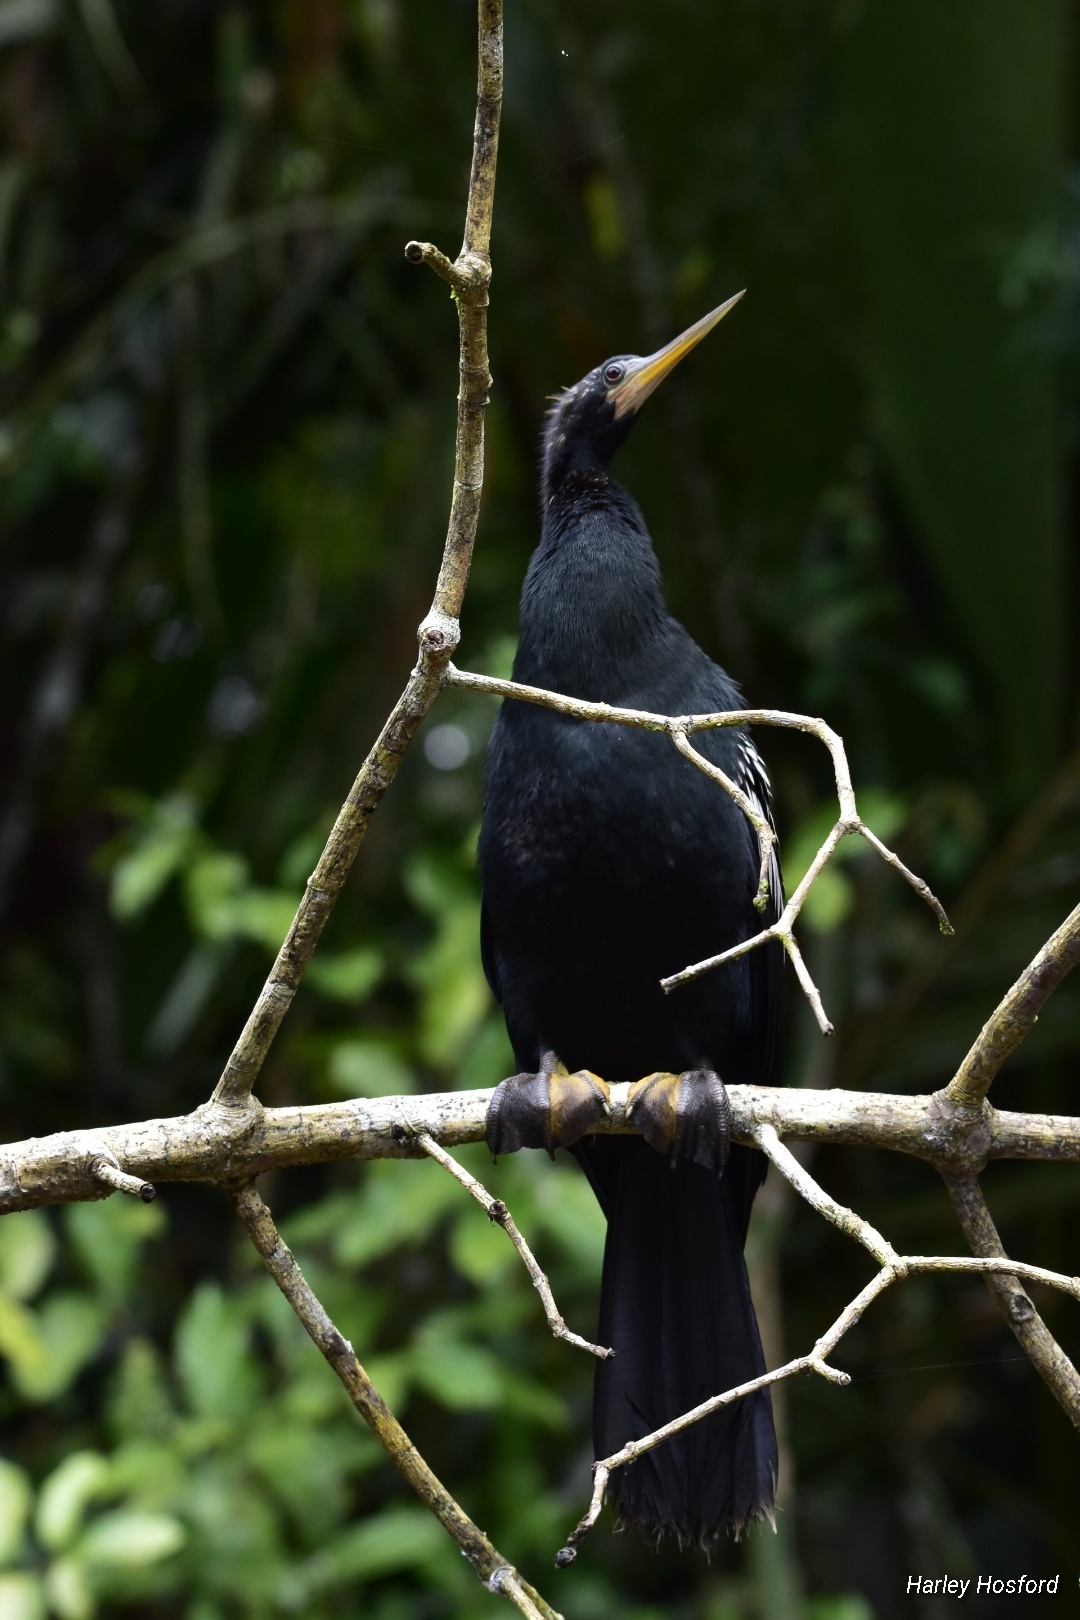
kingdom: Animalia
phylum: Chordata
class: Aves
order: Suliformes
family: Anhingidae
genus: Anhinga
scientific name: Anhinga anhinga
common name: Anhinga
